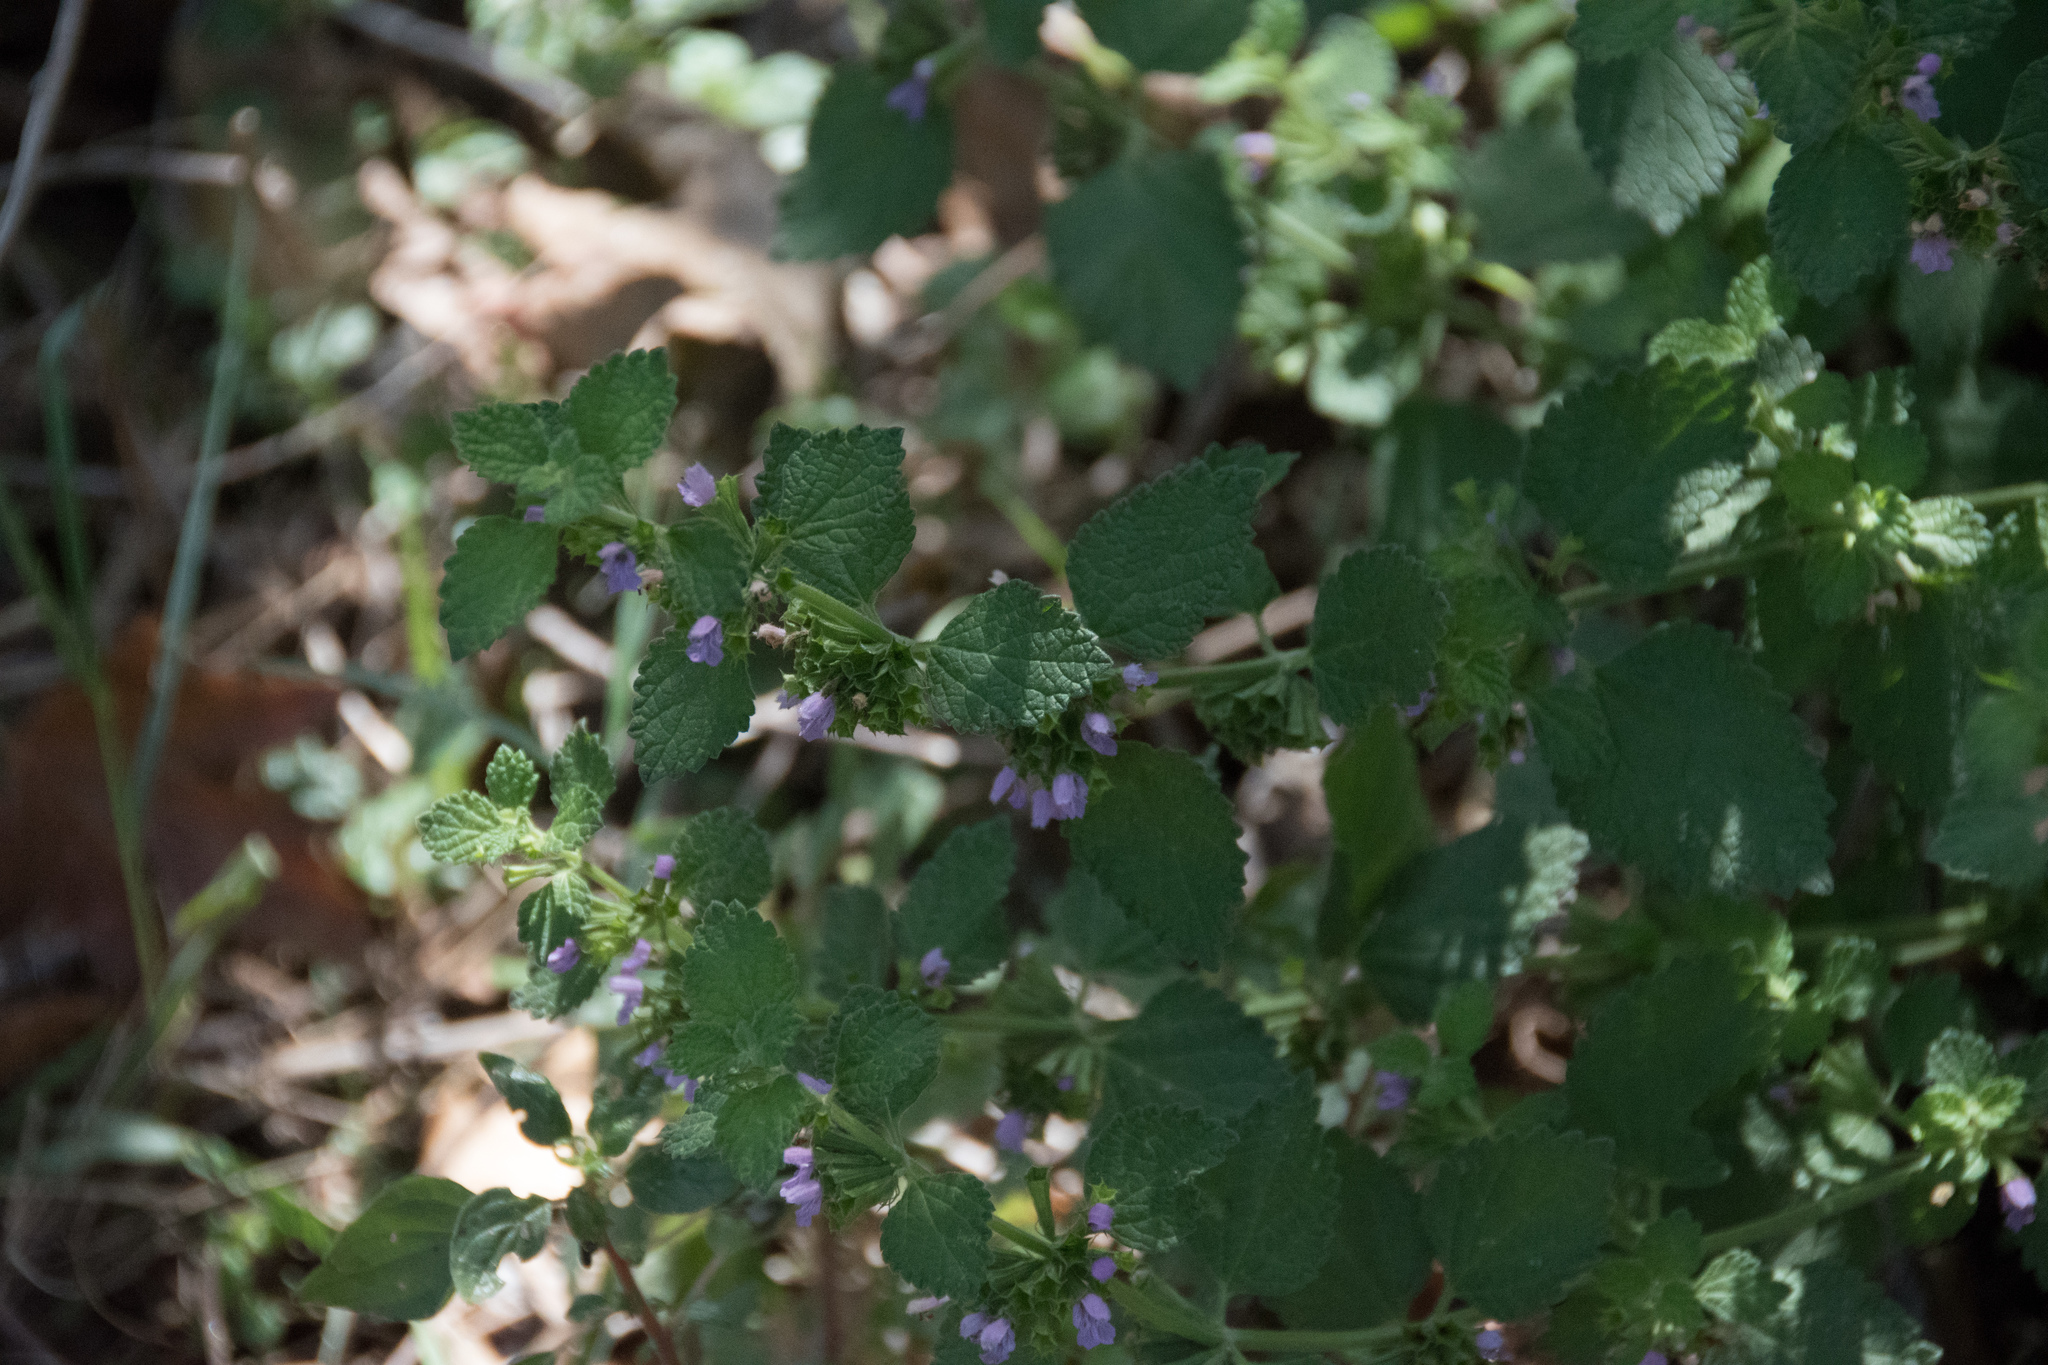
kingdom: Plantae
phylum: Tracheophyta
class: Magnoliopsida
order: Lamiales
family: Lamiaceae
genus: Ballota
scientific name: Ballota nigra
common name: Black horehound
